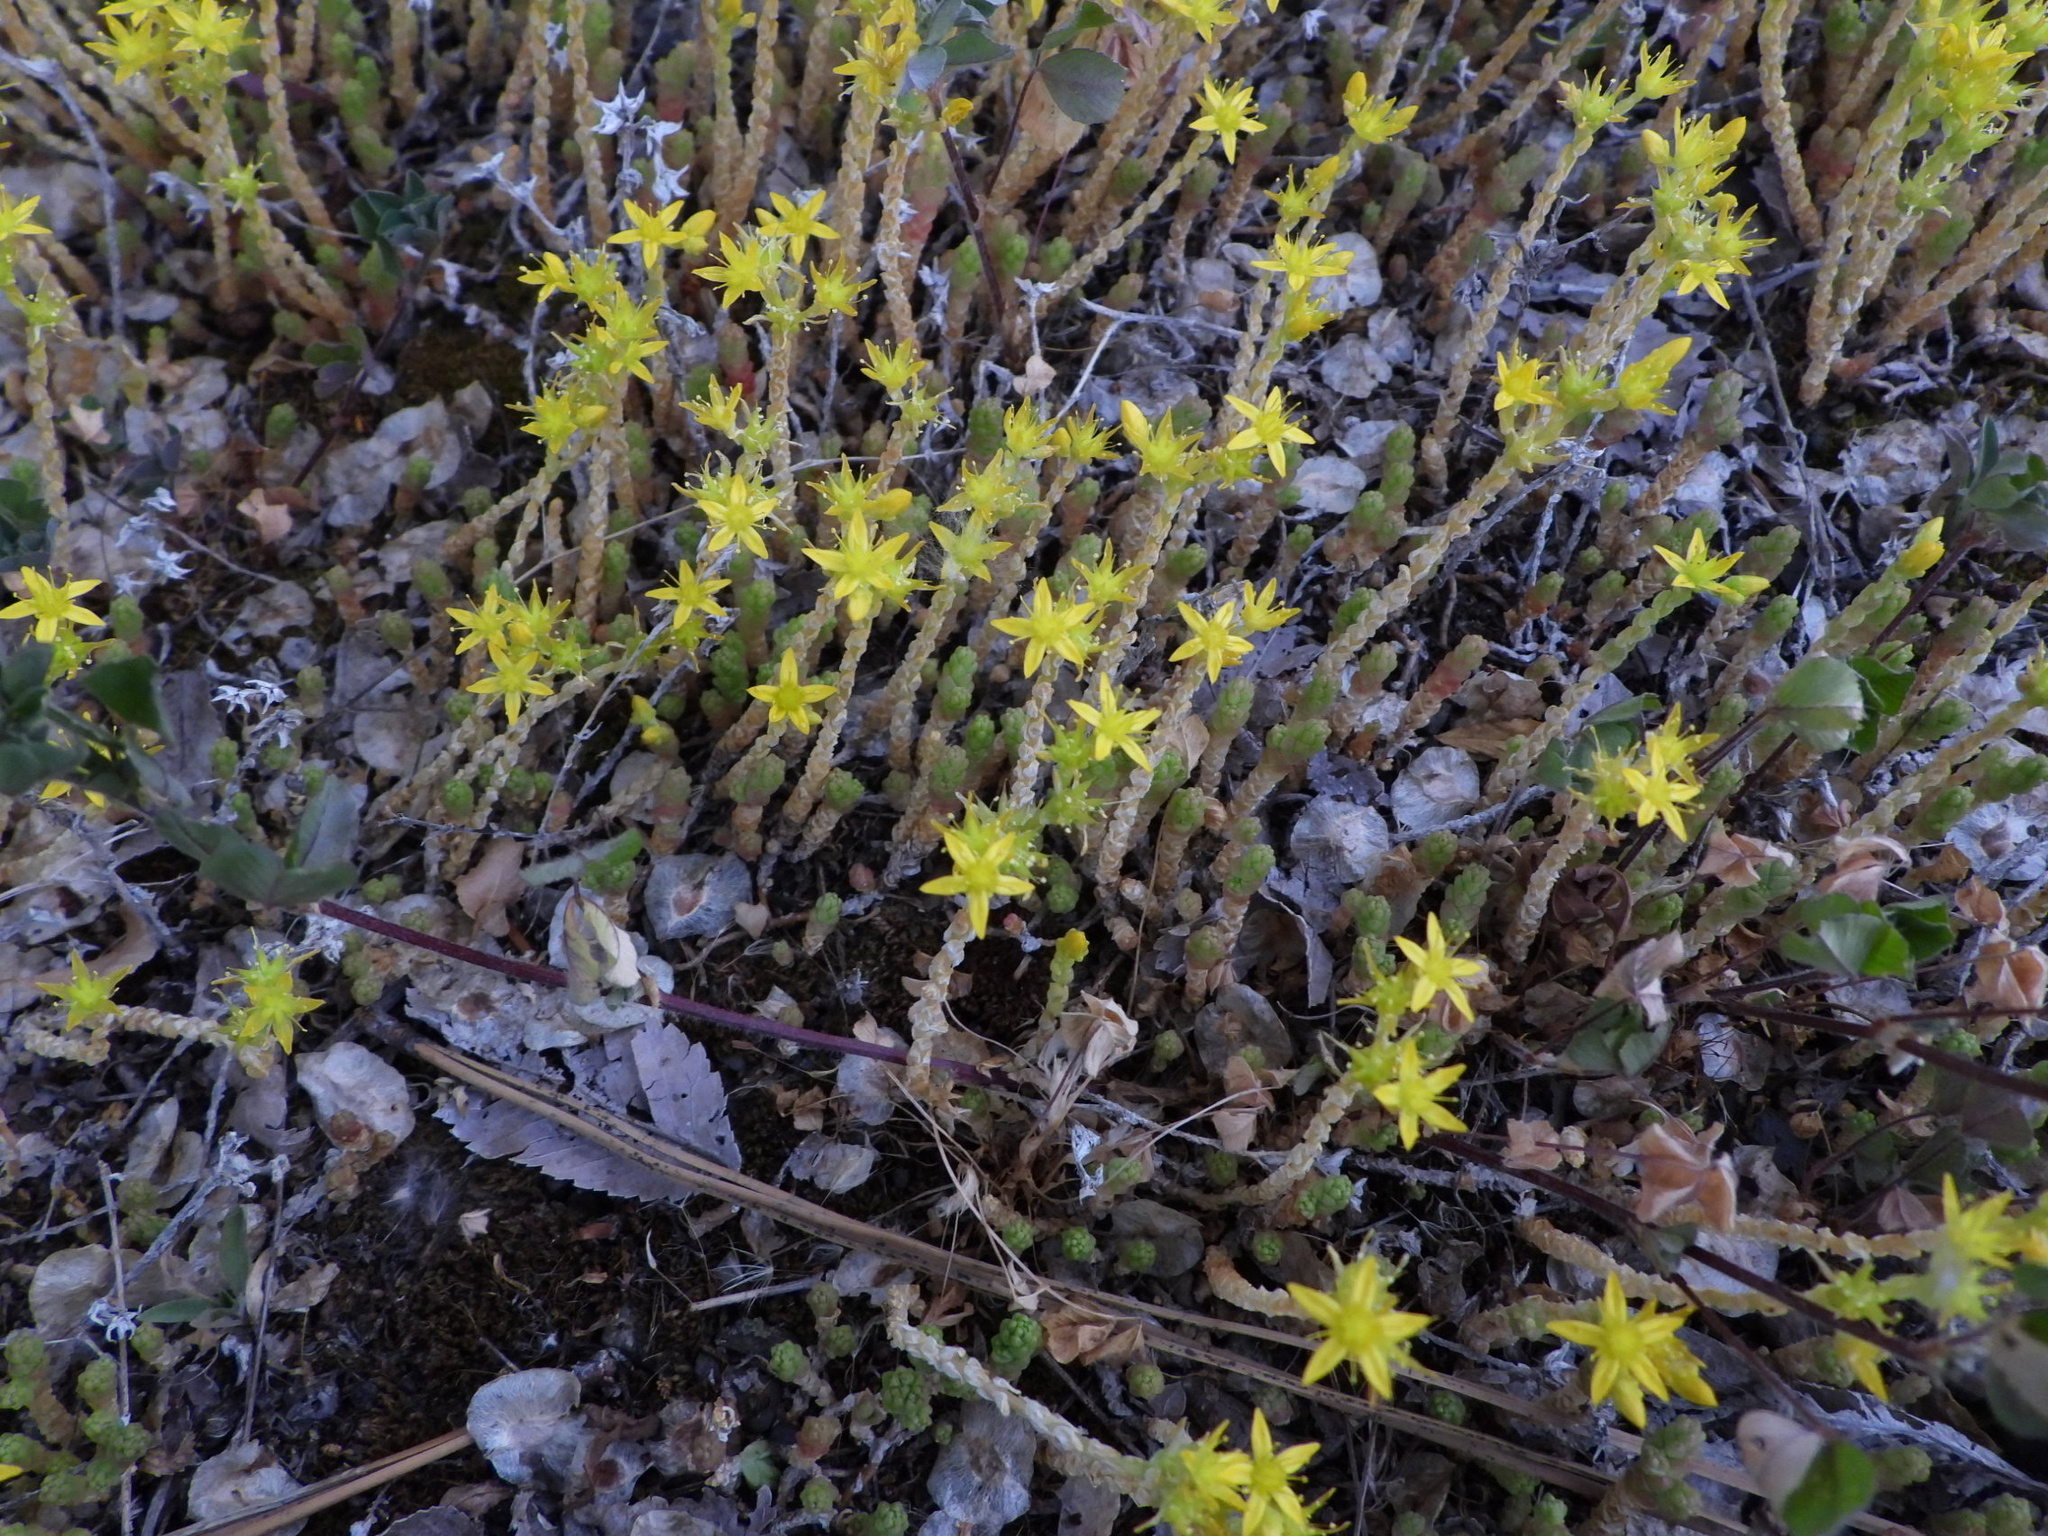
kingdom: Plantae
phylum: Tracheophyta
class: Magnoliopsida
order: Saxifragales
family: Crassulaceae
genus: Sedum
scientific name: Sedum acre
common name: Biting stonecrop
